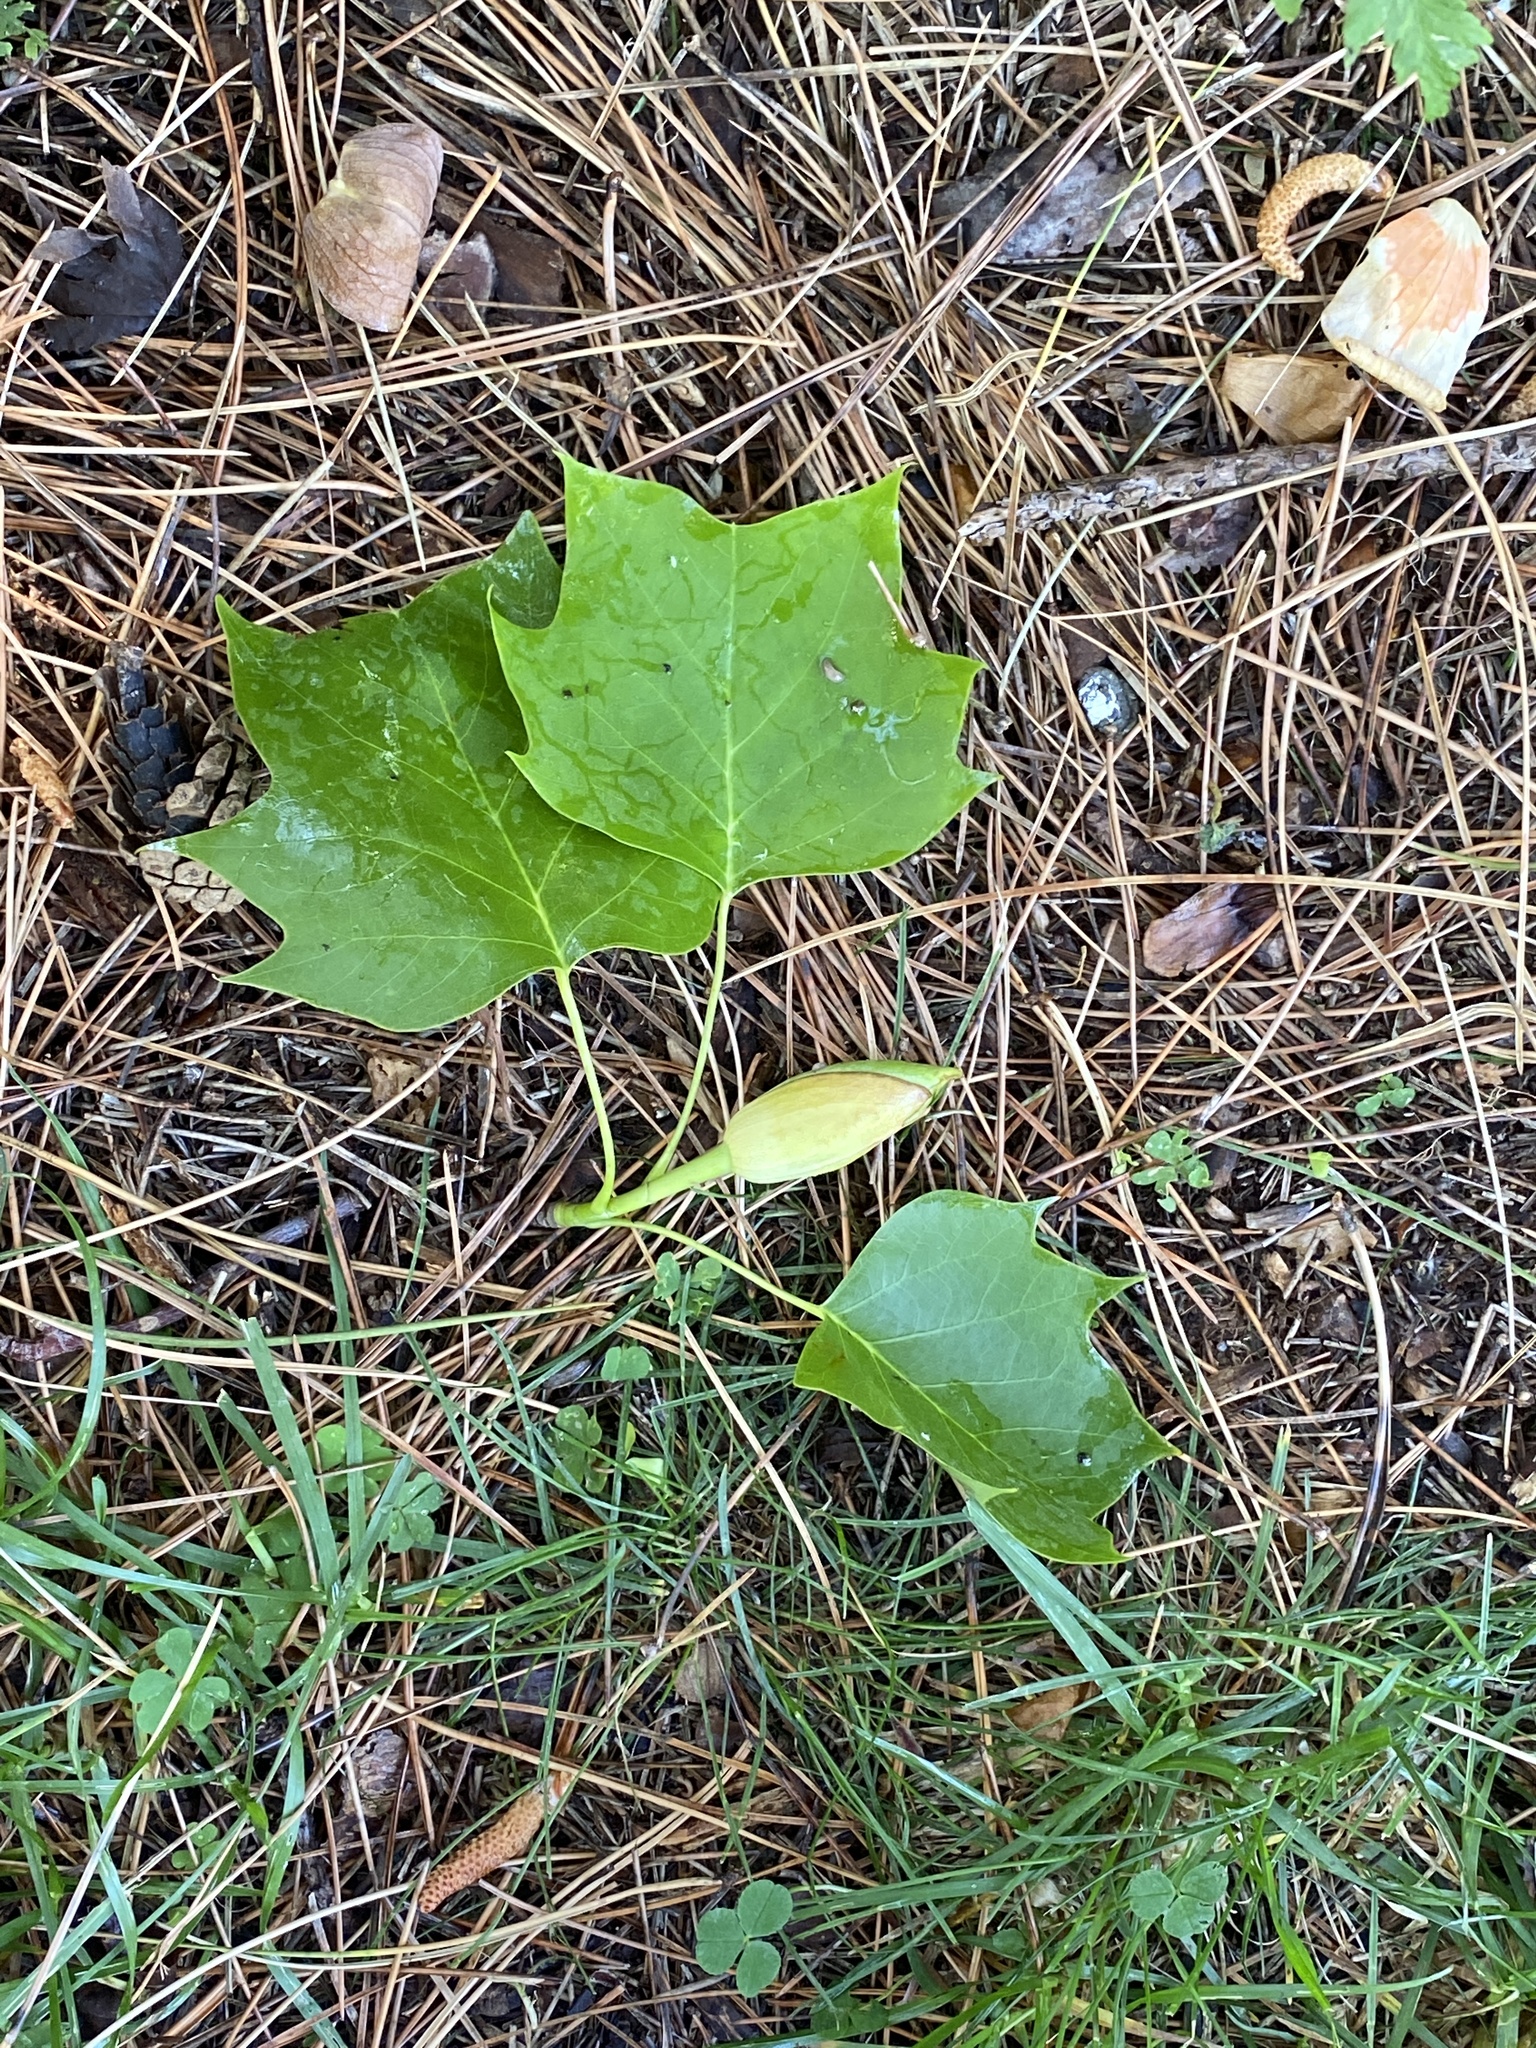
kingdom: Plantae
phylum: Tracheophyta
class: Magnoliopsida
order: Magnoliales
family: Magnoliaceae
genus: Liriodendron
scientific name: Liriodendron tulipifera
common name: Tulip tree
